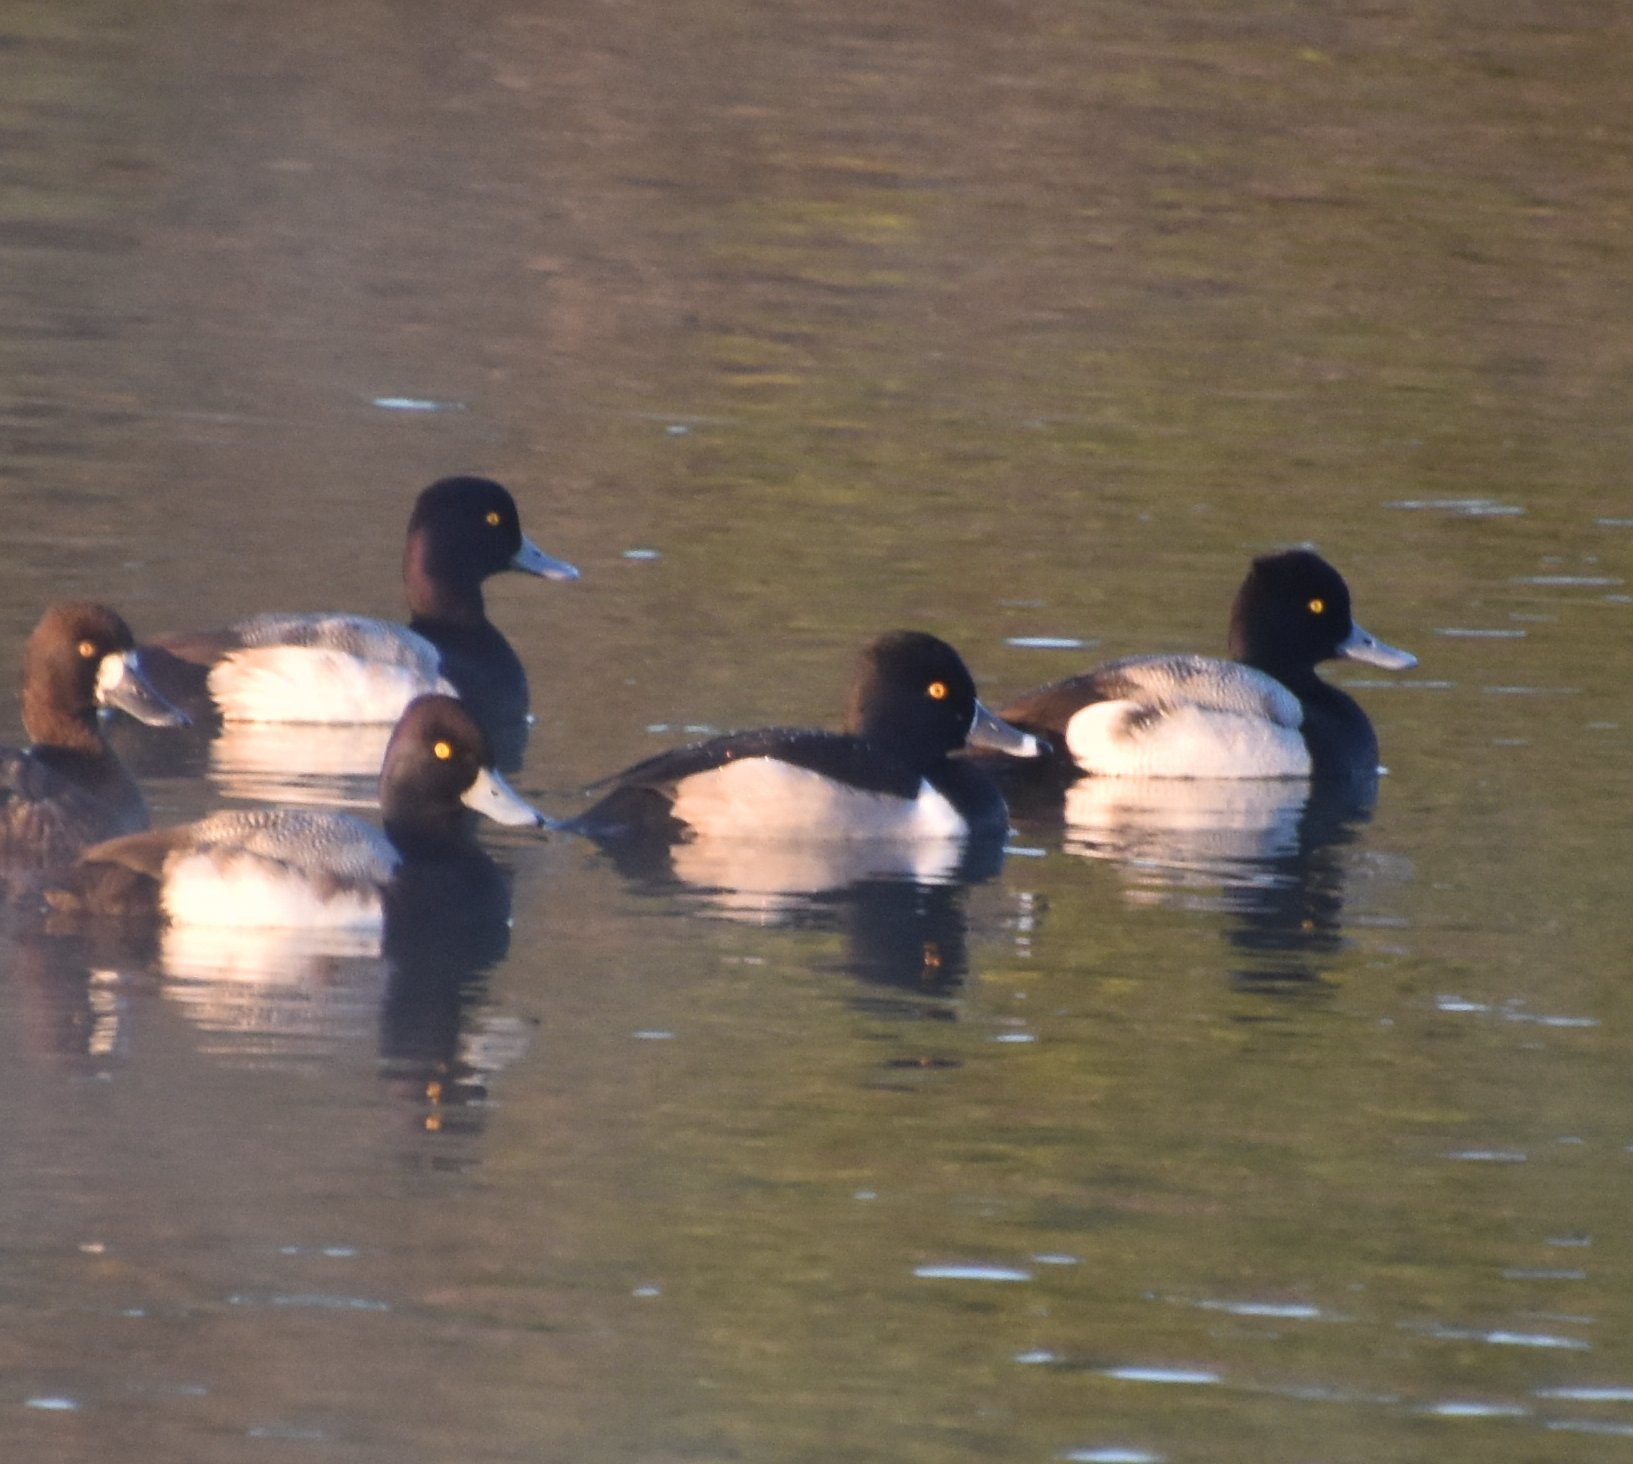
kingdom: Animalia
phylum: Chordata
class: Aves
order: Anseriformes
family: Anatidae
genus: Aythya
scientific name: Aythya collaris
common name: Ring-necked duck
